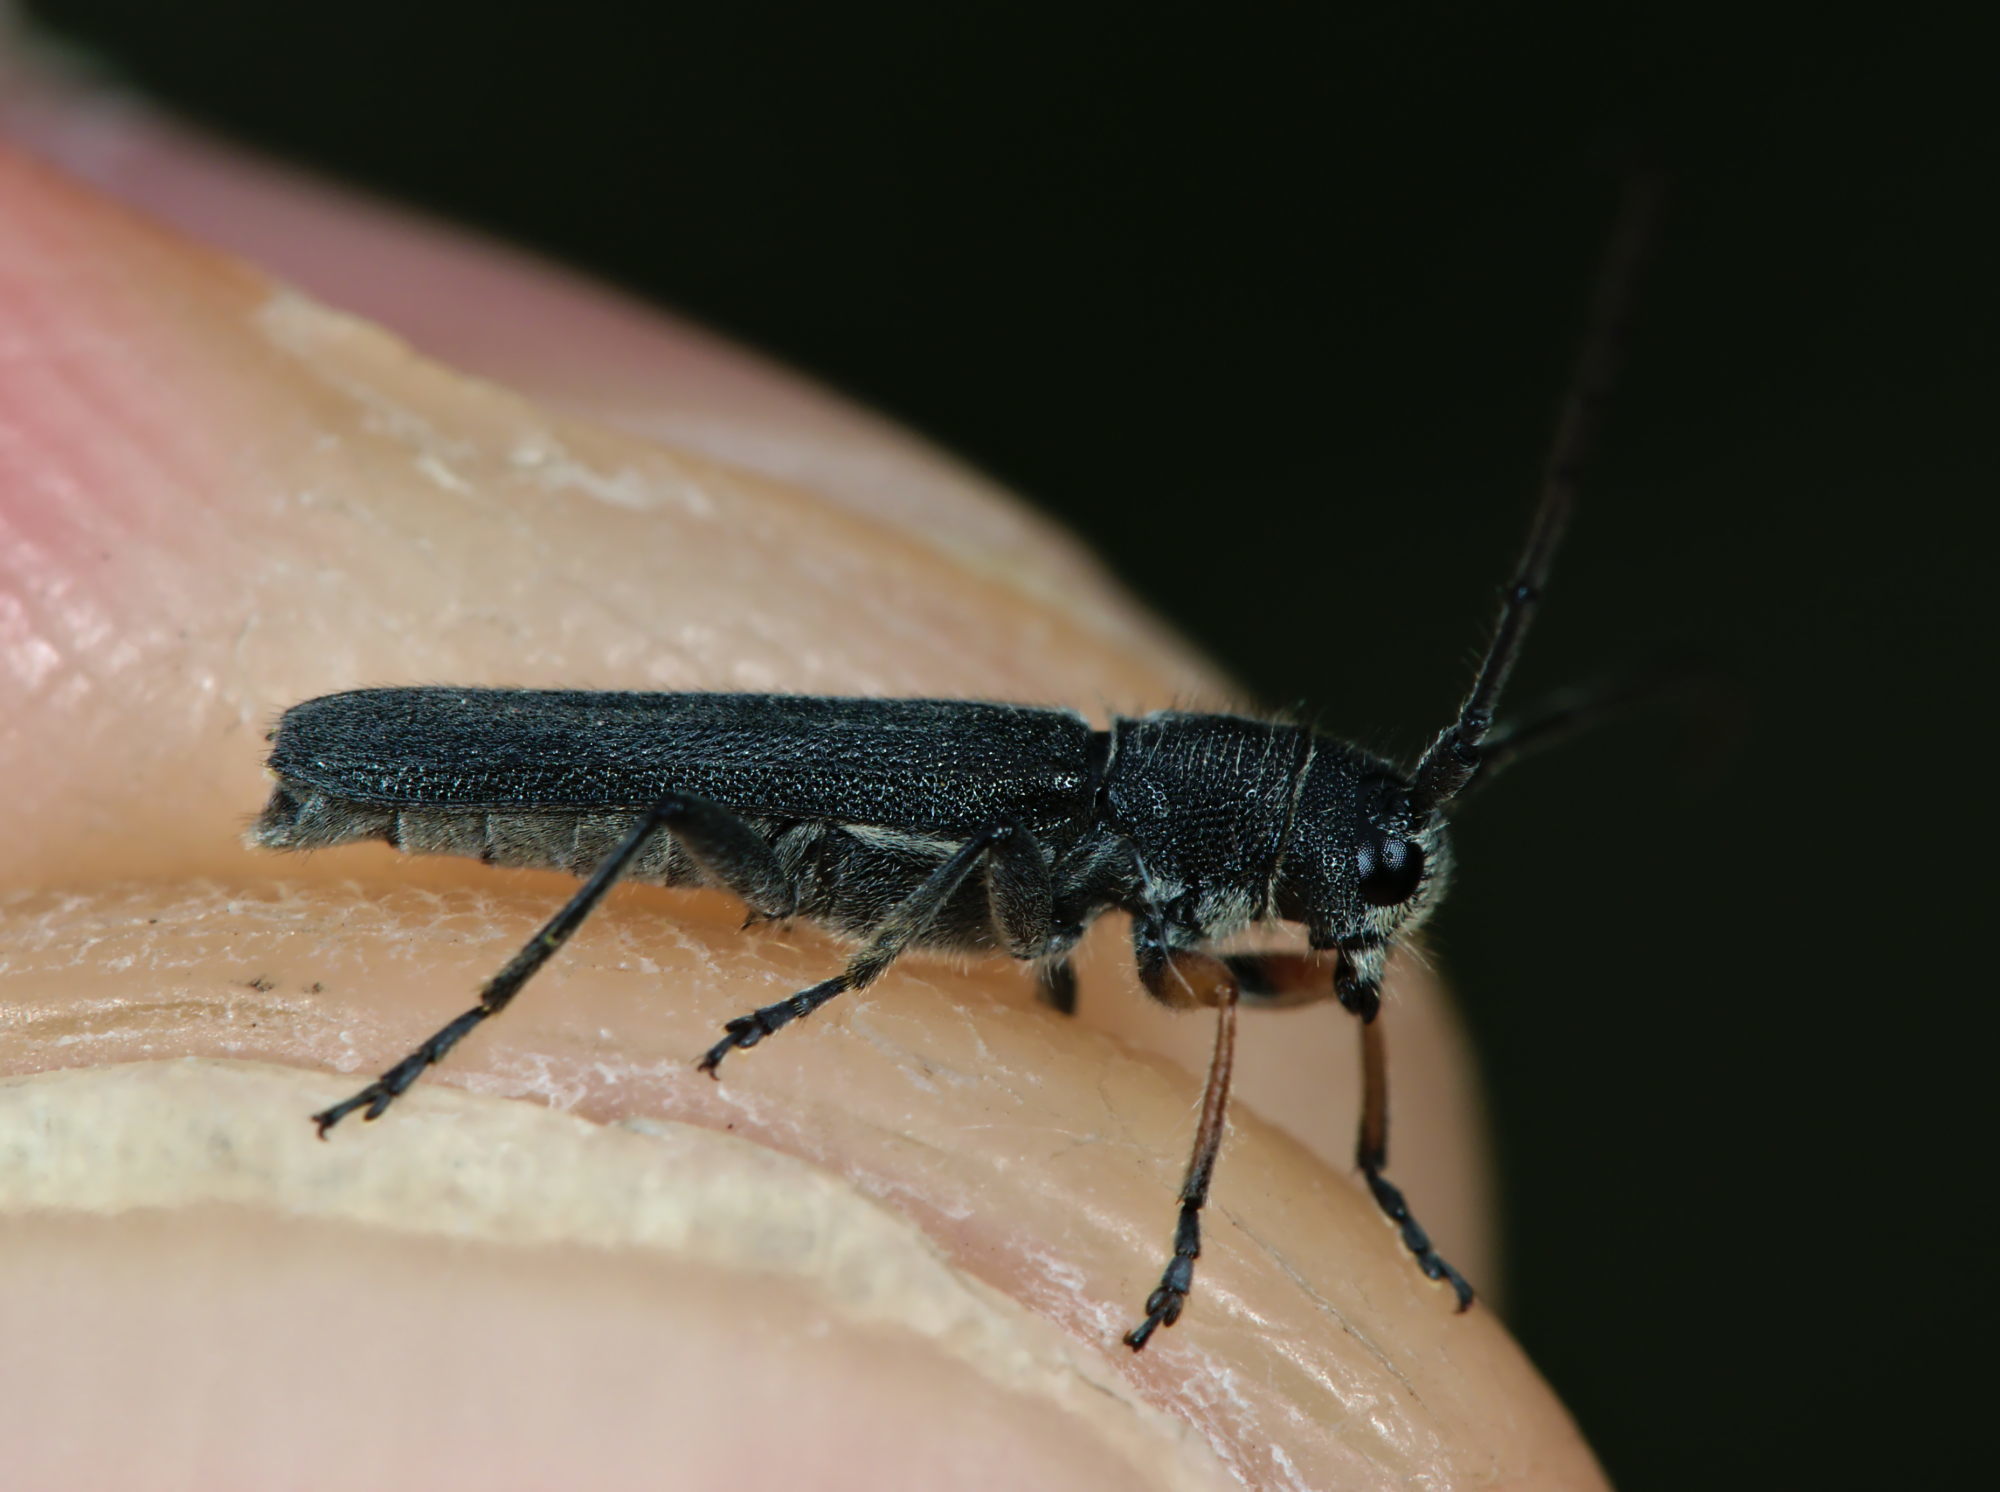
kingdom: Animalia
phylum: Arthropoda
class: Insecta
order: Coleoptera
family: Cerambycidae
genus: Phytoecia
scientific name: Phytoecia cylindrica
